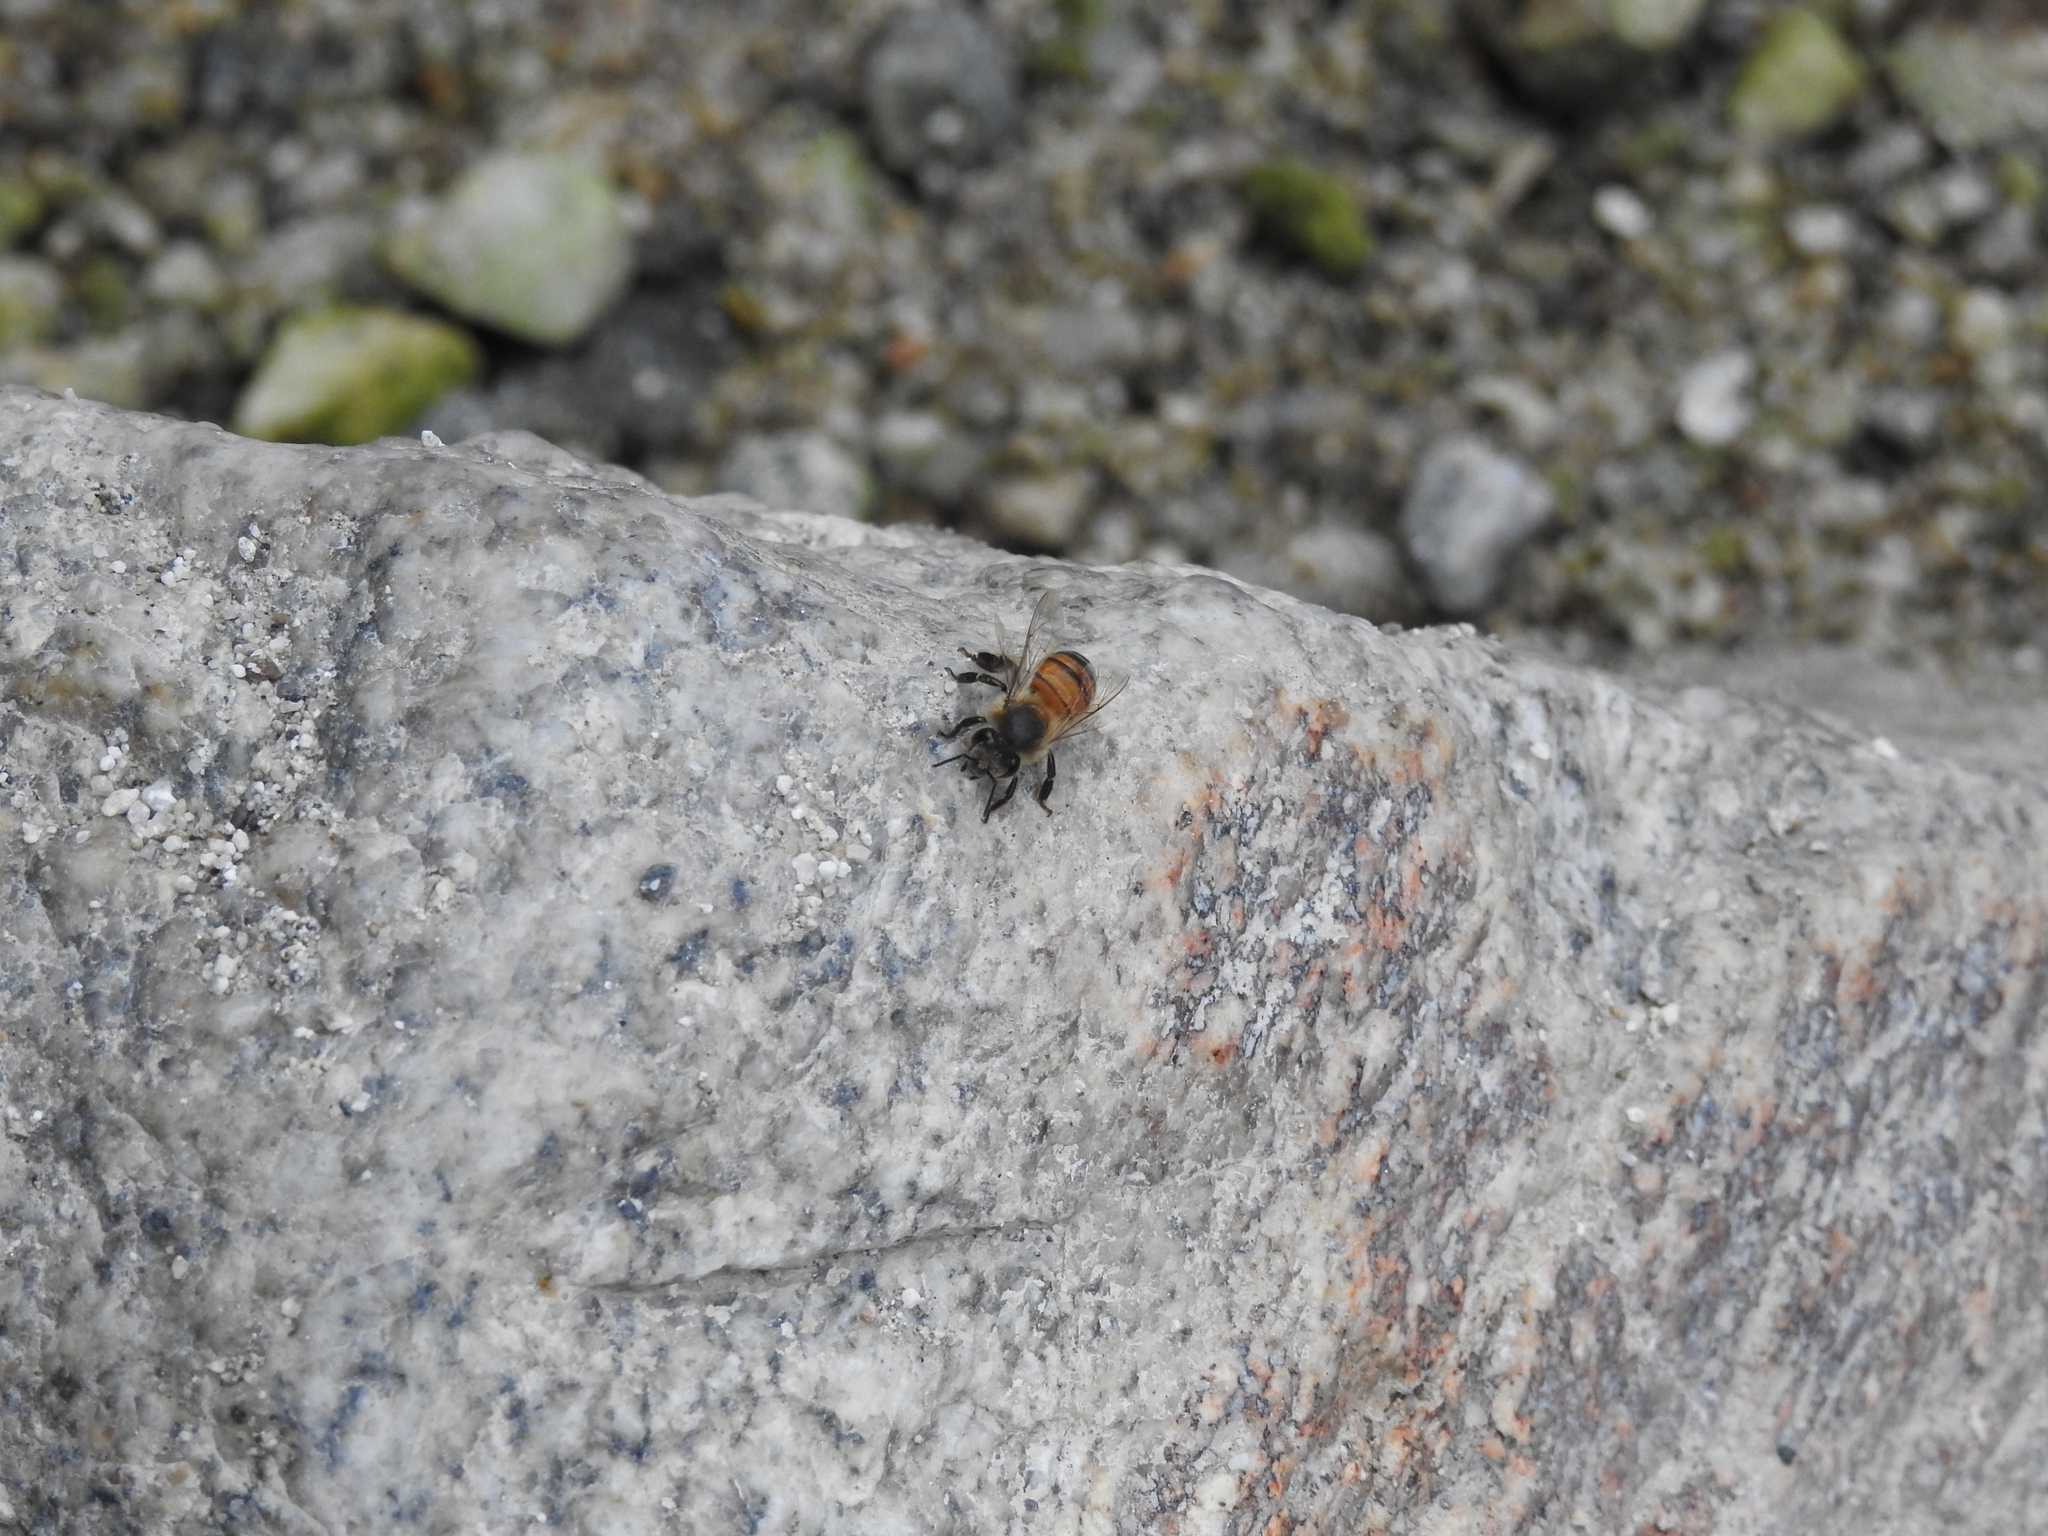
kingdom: Animalia
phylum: Arthropoda
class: Insecta
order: Hymenoptera
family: Apidae
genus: Apis
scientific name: Apis mellifera
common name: Honey bee
